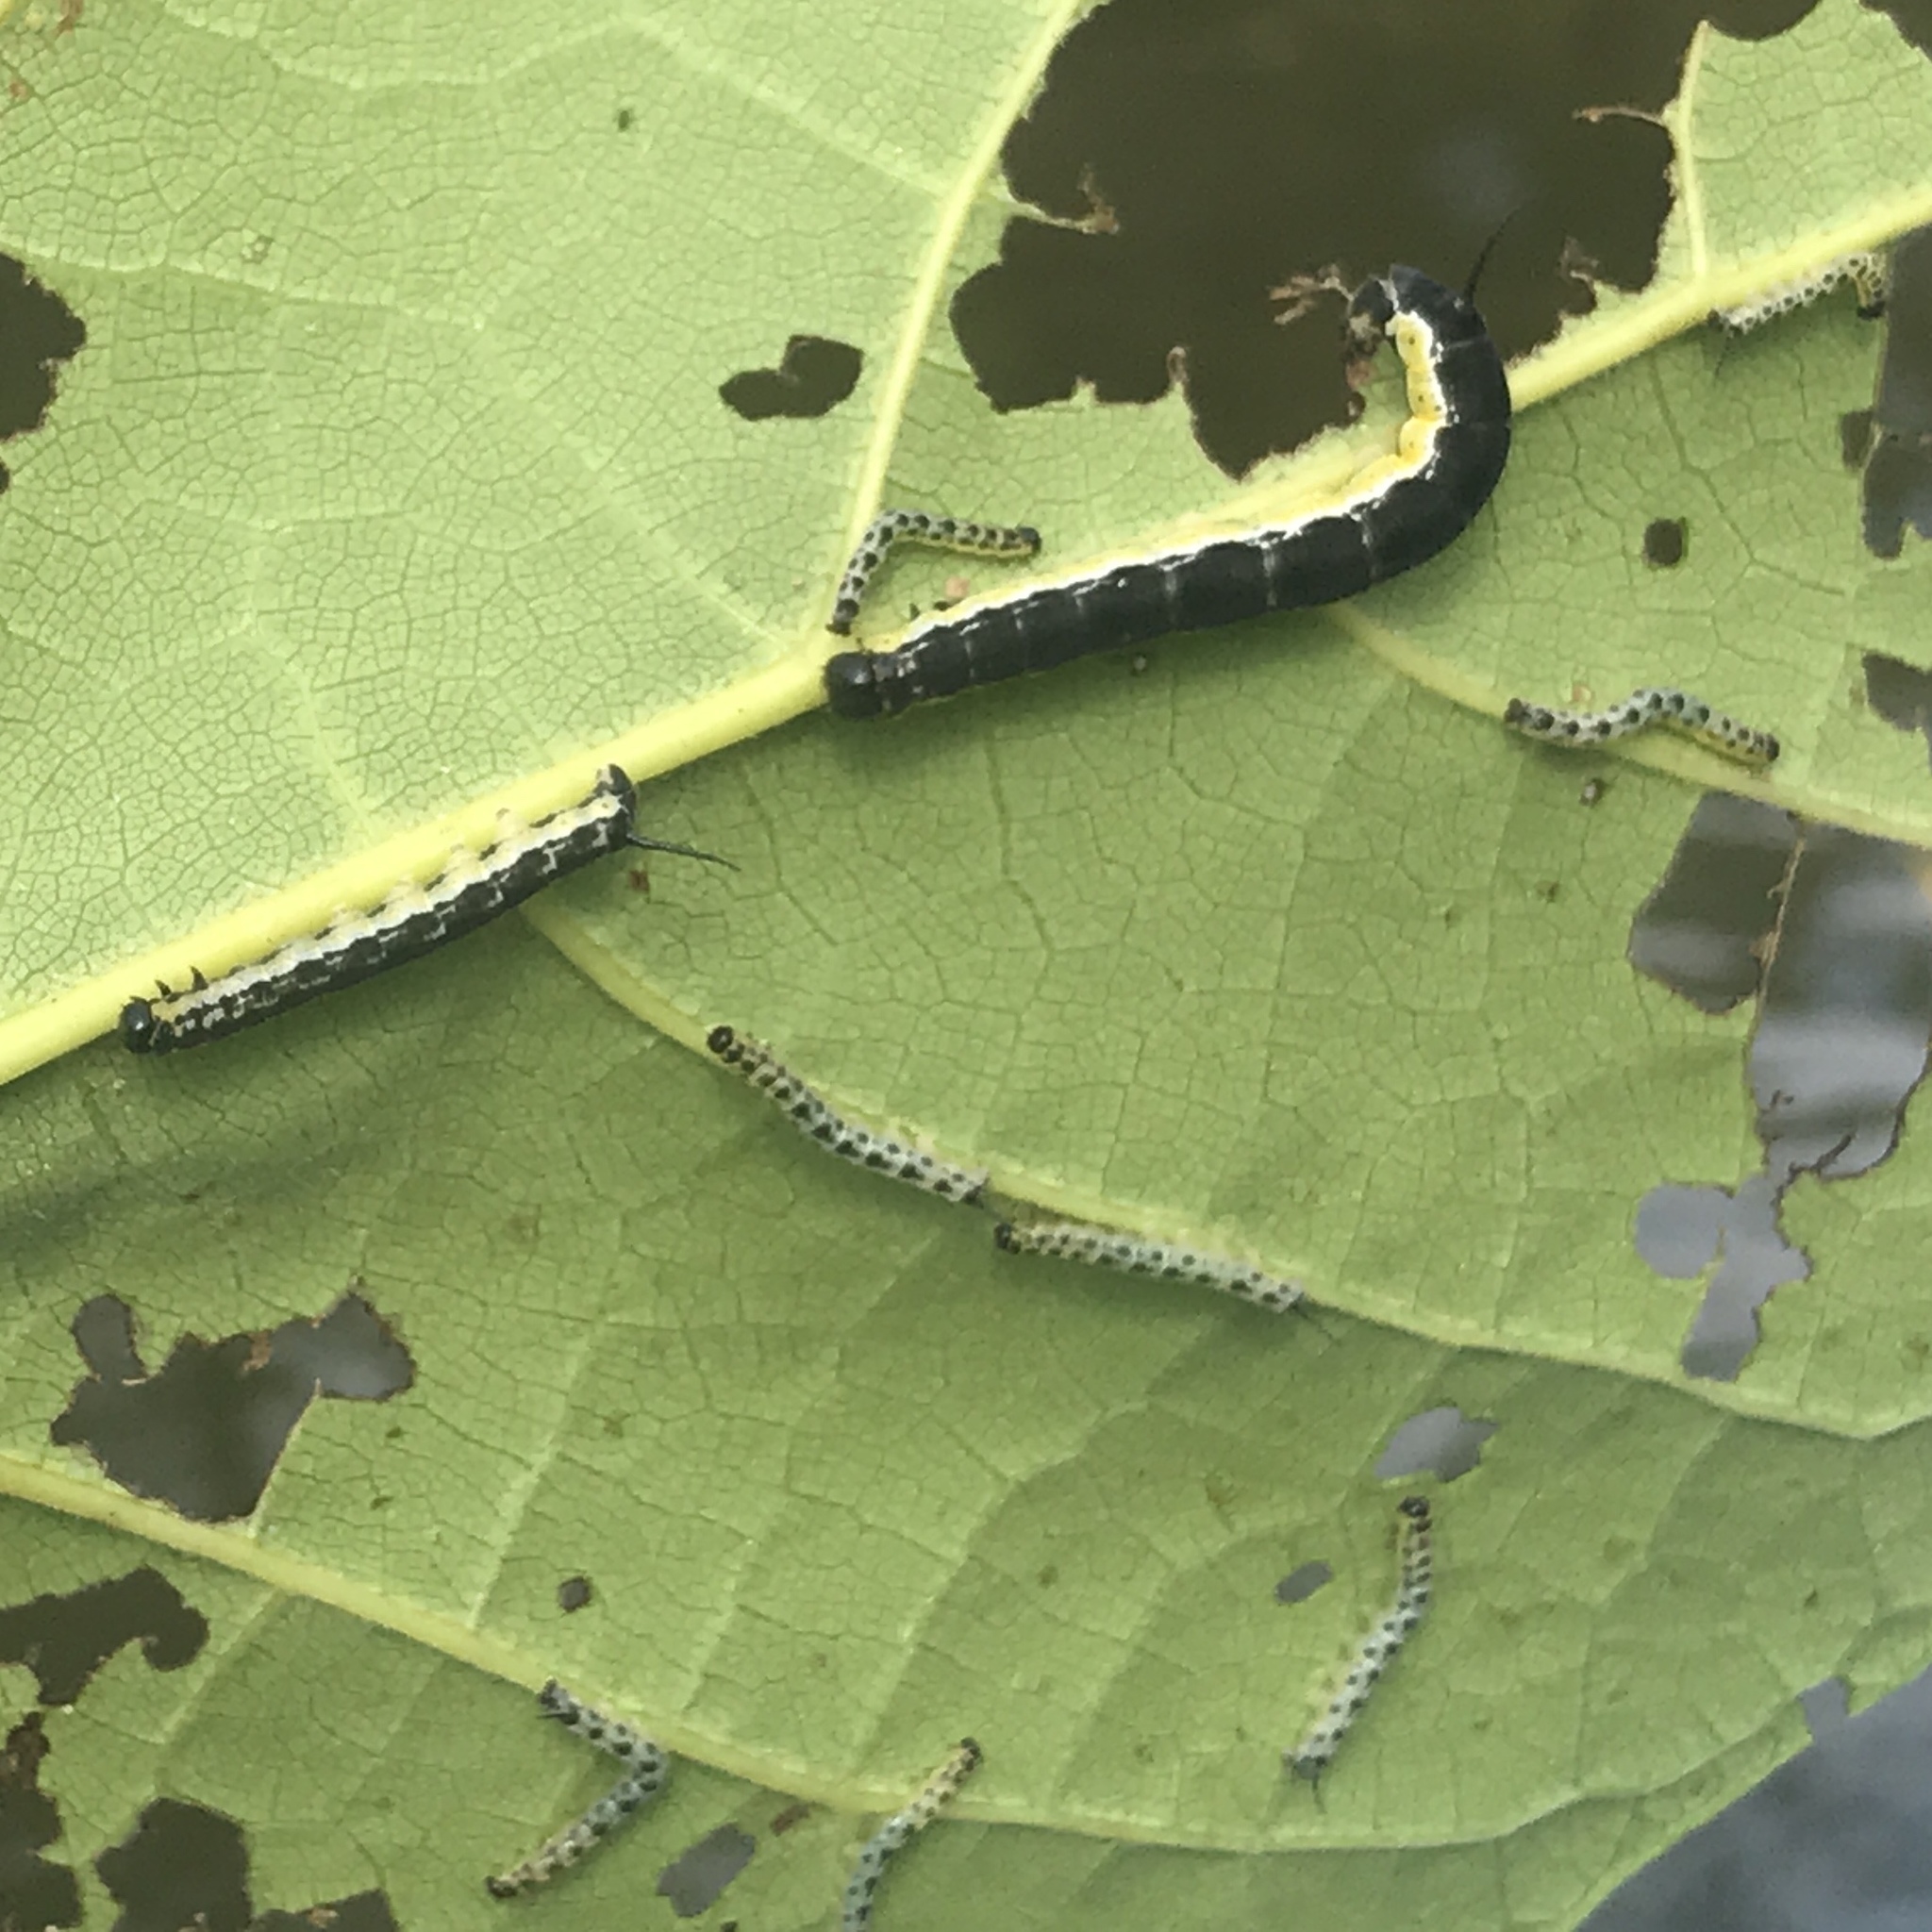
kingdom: Animalia
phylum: Arthropoda
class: Insecta
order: Lepidoptera
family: Sphingidae
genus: Ceratomia
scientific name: Ceratomia catalpae
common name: Catalpa hornworm
